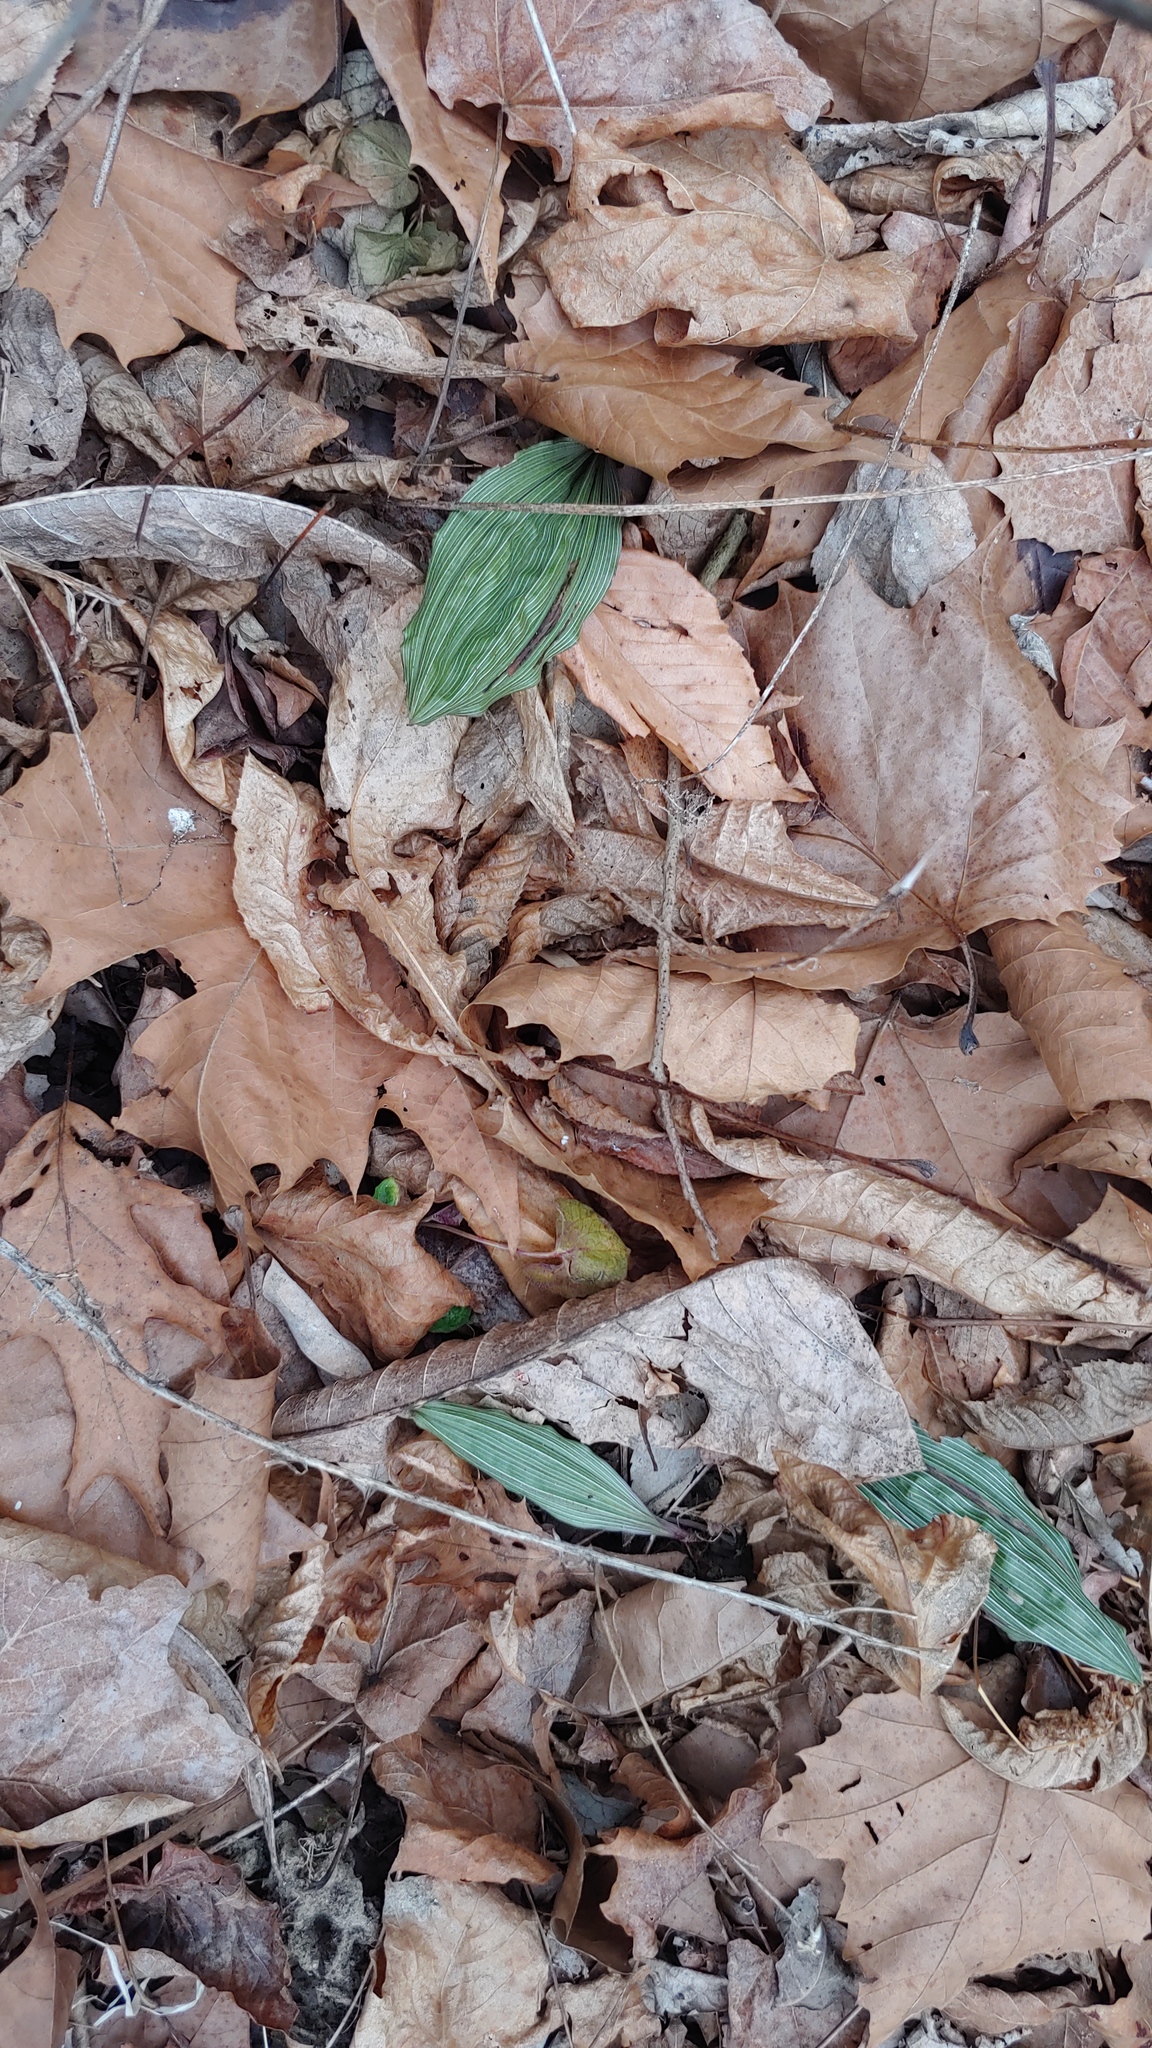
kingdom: Plantae
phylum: Tracheophyta
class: Liliopsida
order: Asparagales
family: Orchidaceae
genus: Aplectrum
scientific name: Aplectrum hyemale
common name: Adam-and-eve
